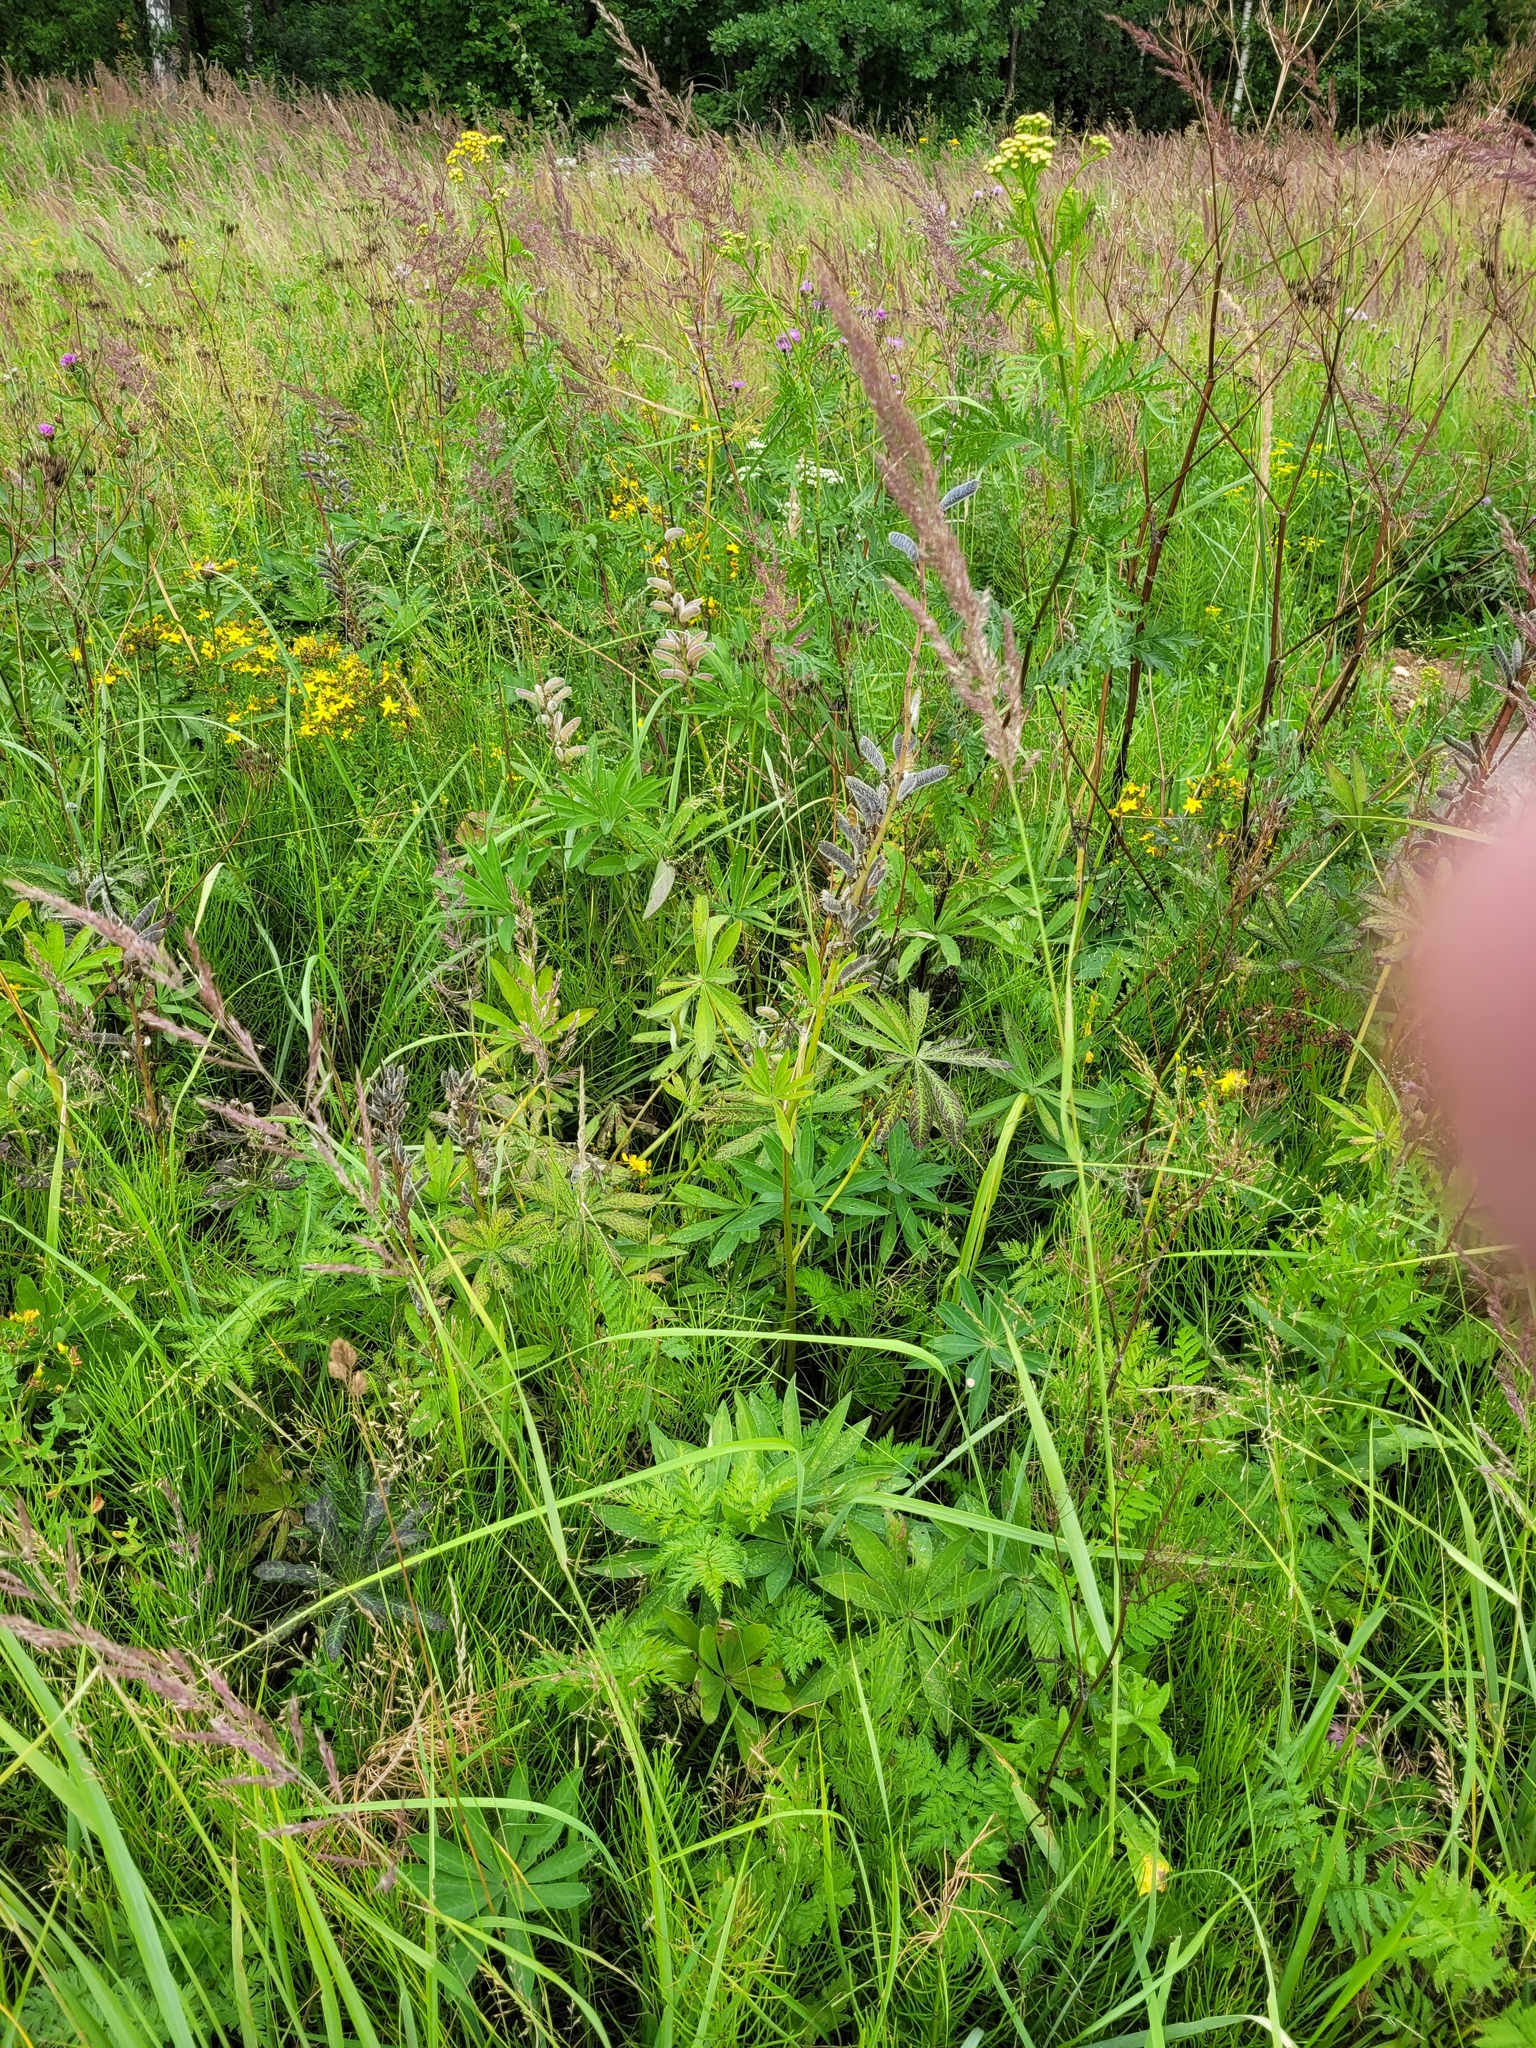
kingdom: Plantae
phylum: Tracheophyta
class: Magnoliopsida
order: Fabales
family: Fabaceae
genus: Lupinus
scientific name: Lupinus polyphyllus
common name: Garden lupin
